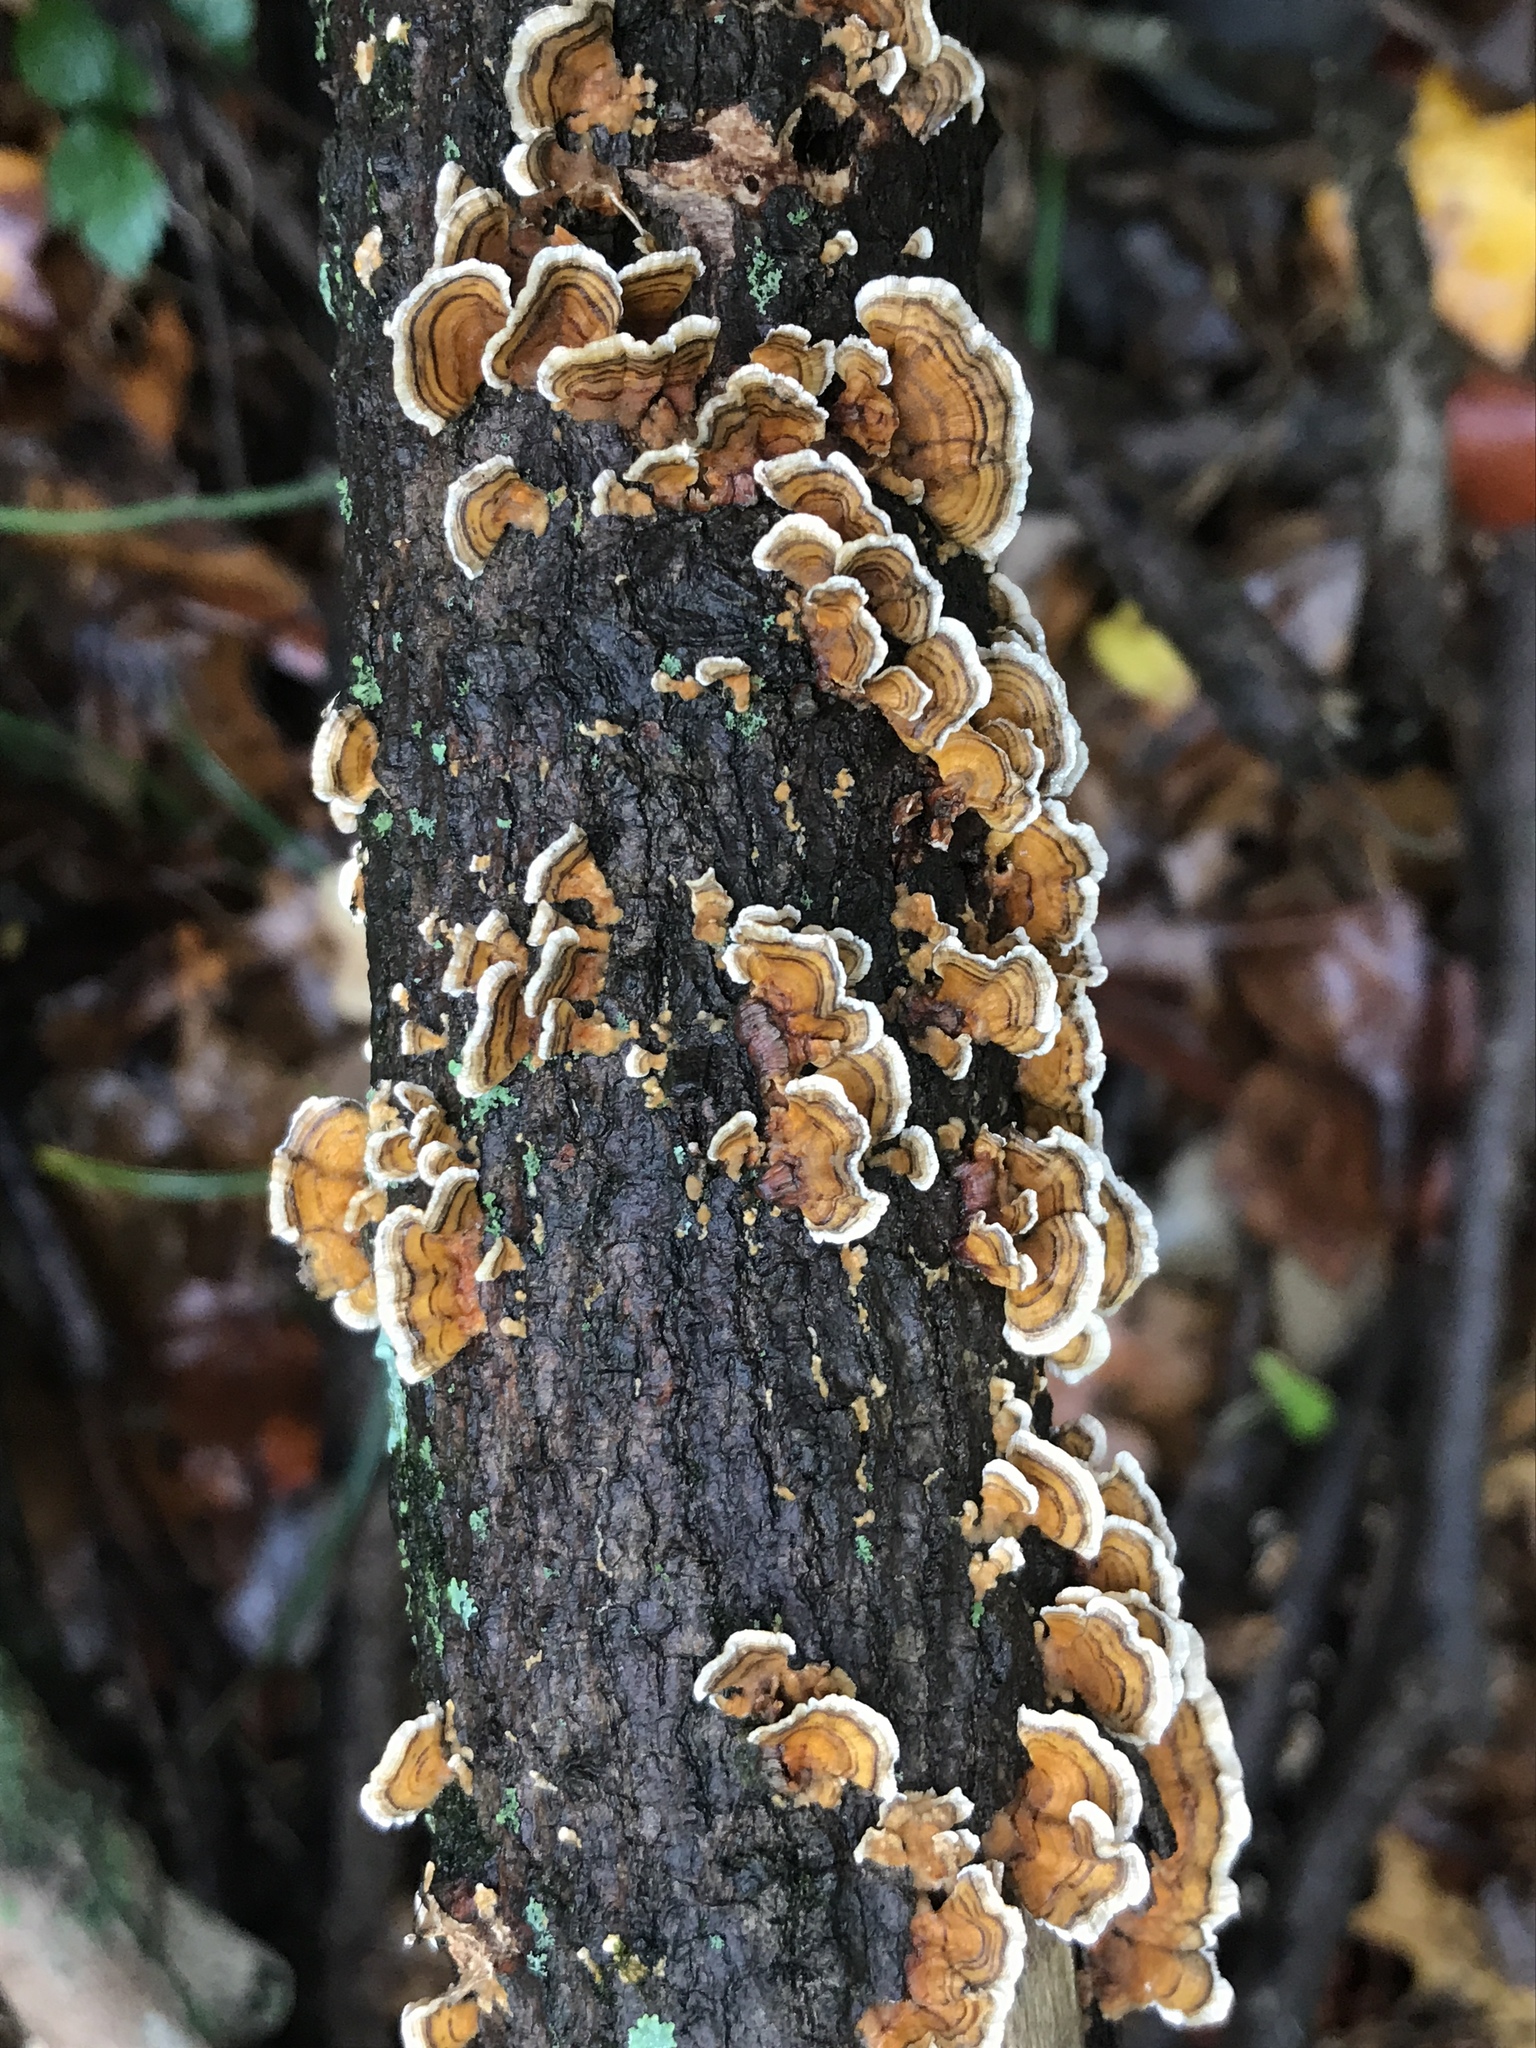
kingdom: Fungi
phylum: Basidiomycota
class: Agaricomycetes
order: Russulales
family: Stereaceae
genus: Stereum
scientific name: Stereum gausapatum
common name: Bleeding oak crust
